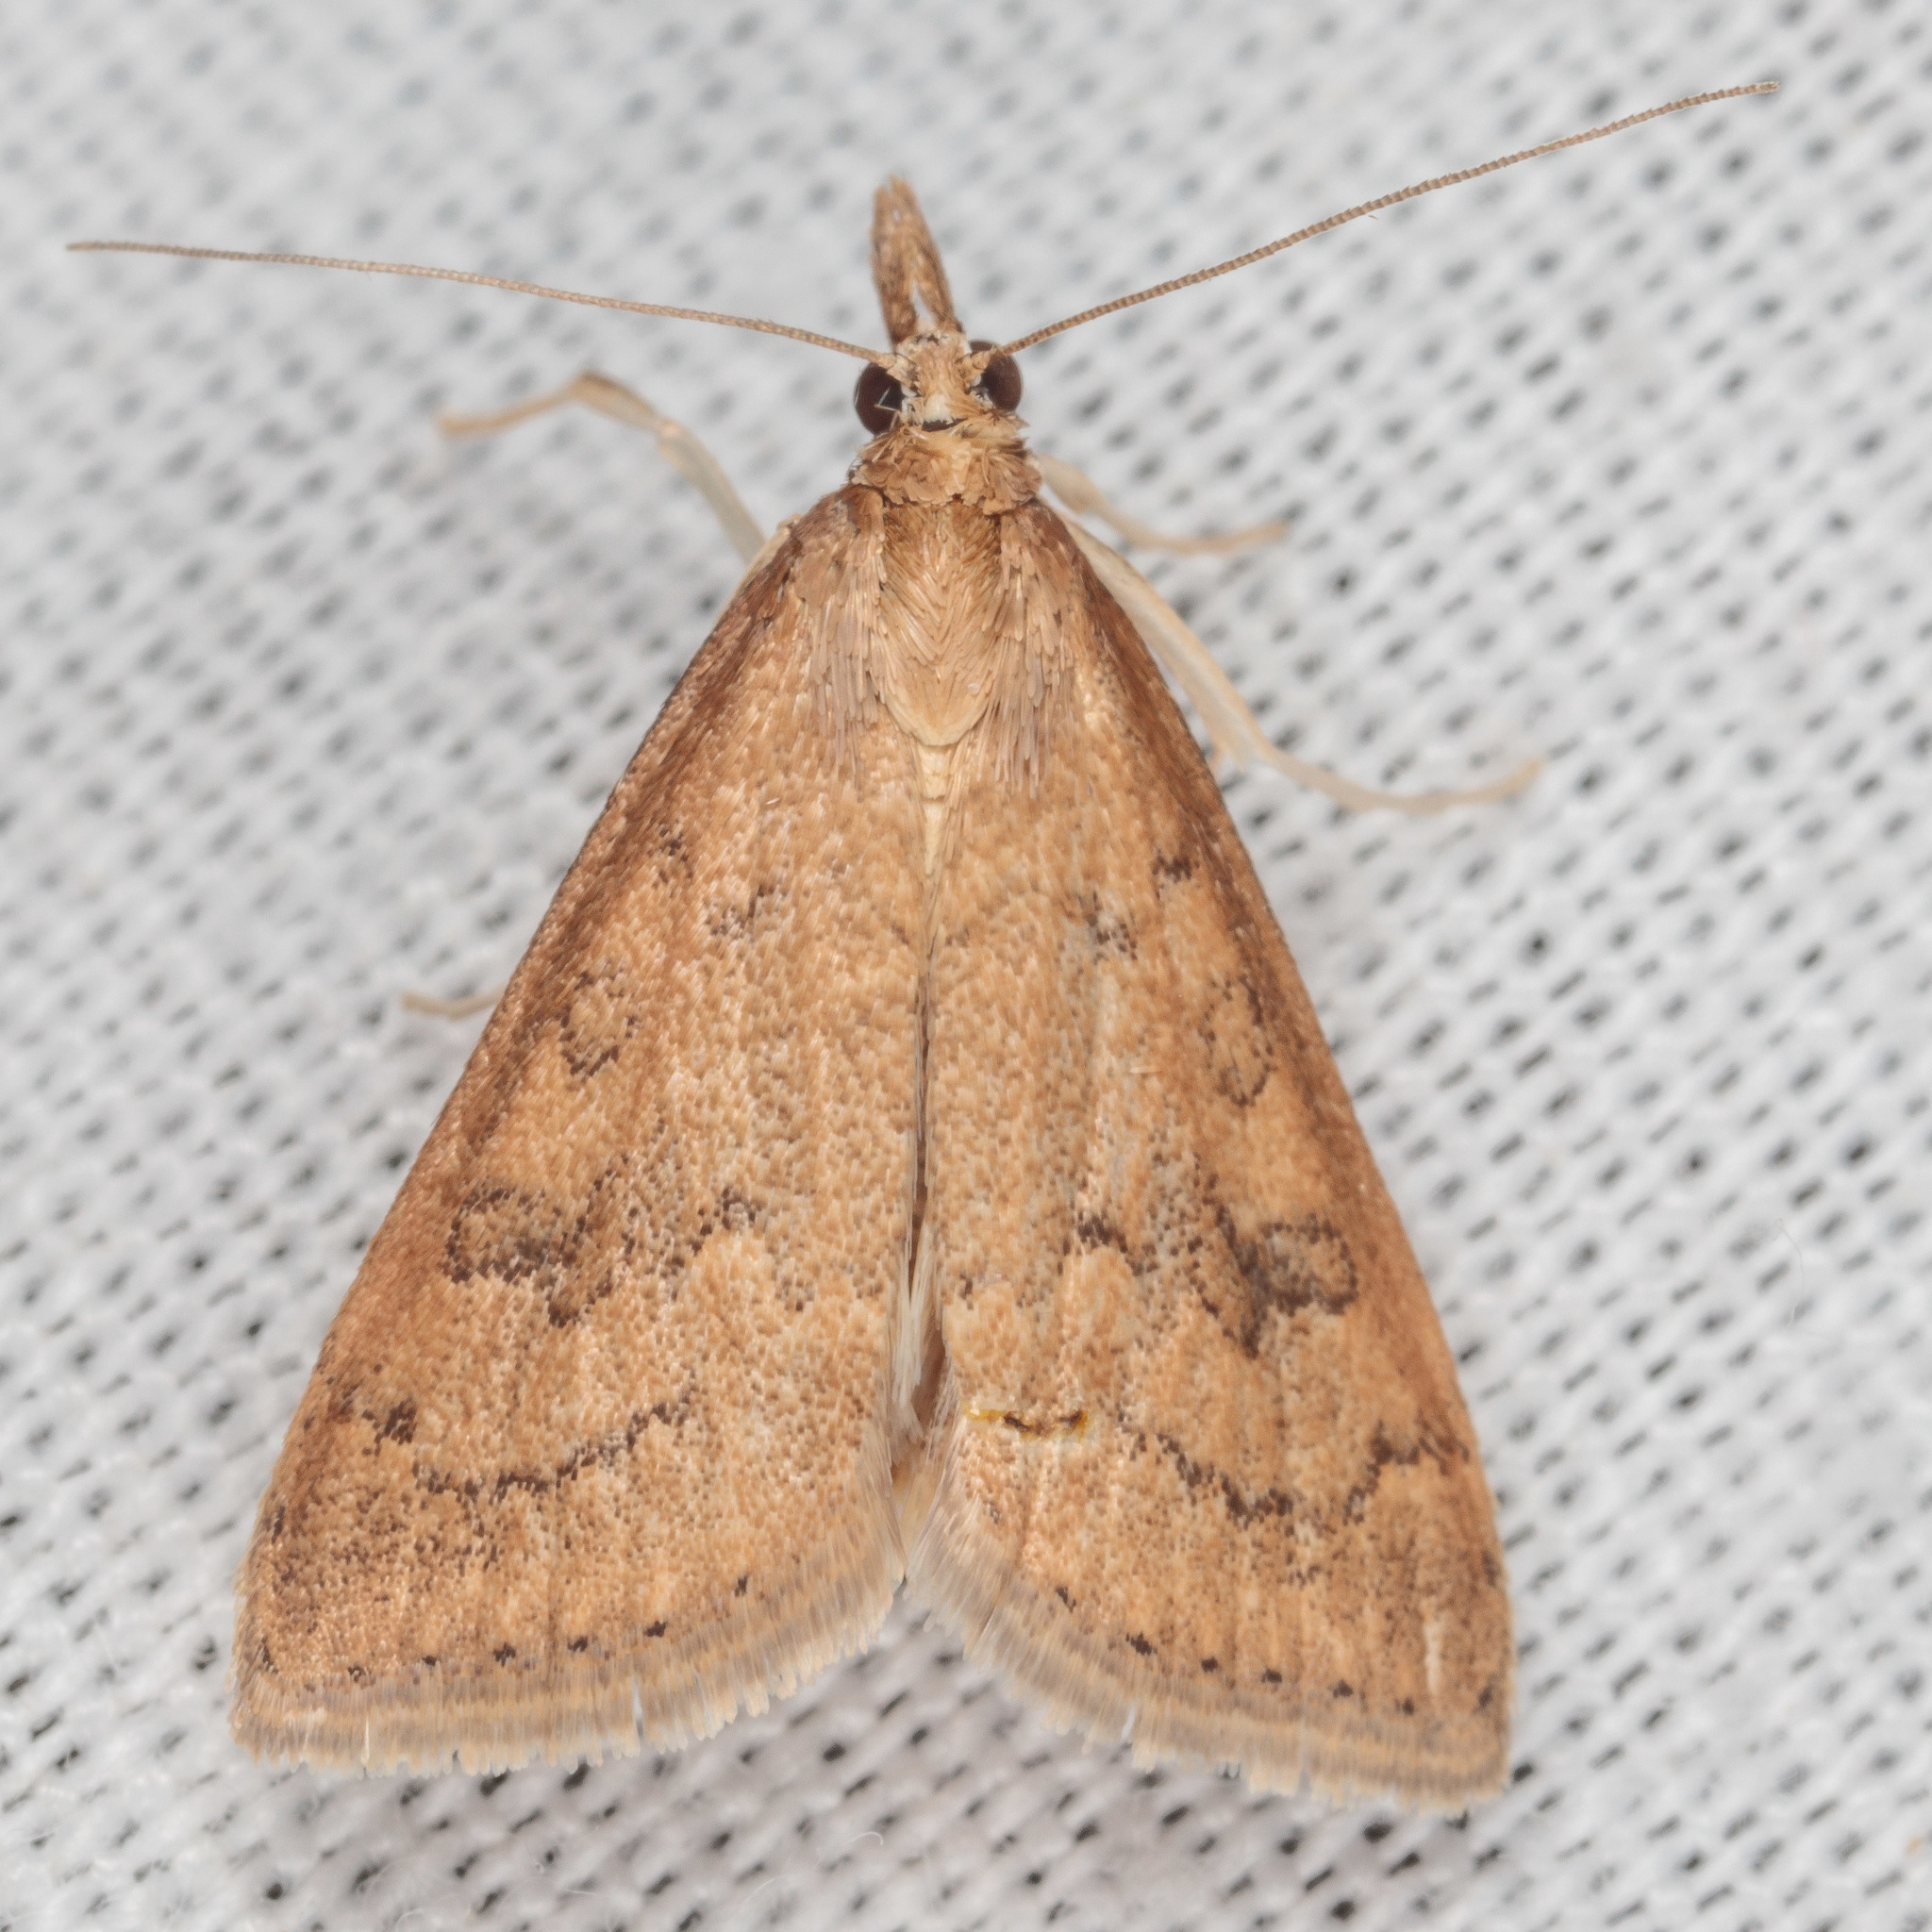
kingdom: Animalia
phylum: Arthropoda
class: Insecta
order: Lepidoptera
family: Crambidae
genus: Udea
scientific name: Udea rubigalis
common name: Celery leaftier moth
